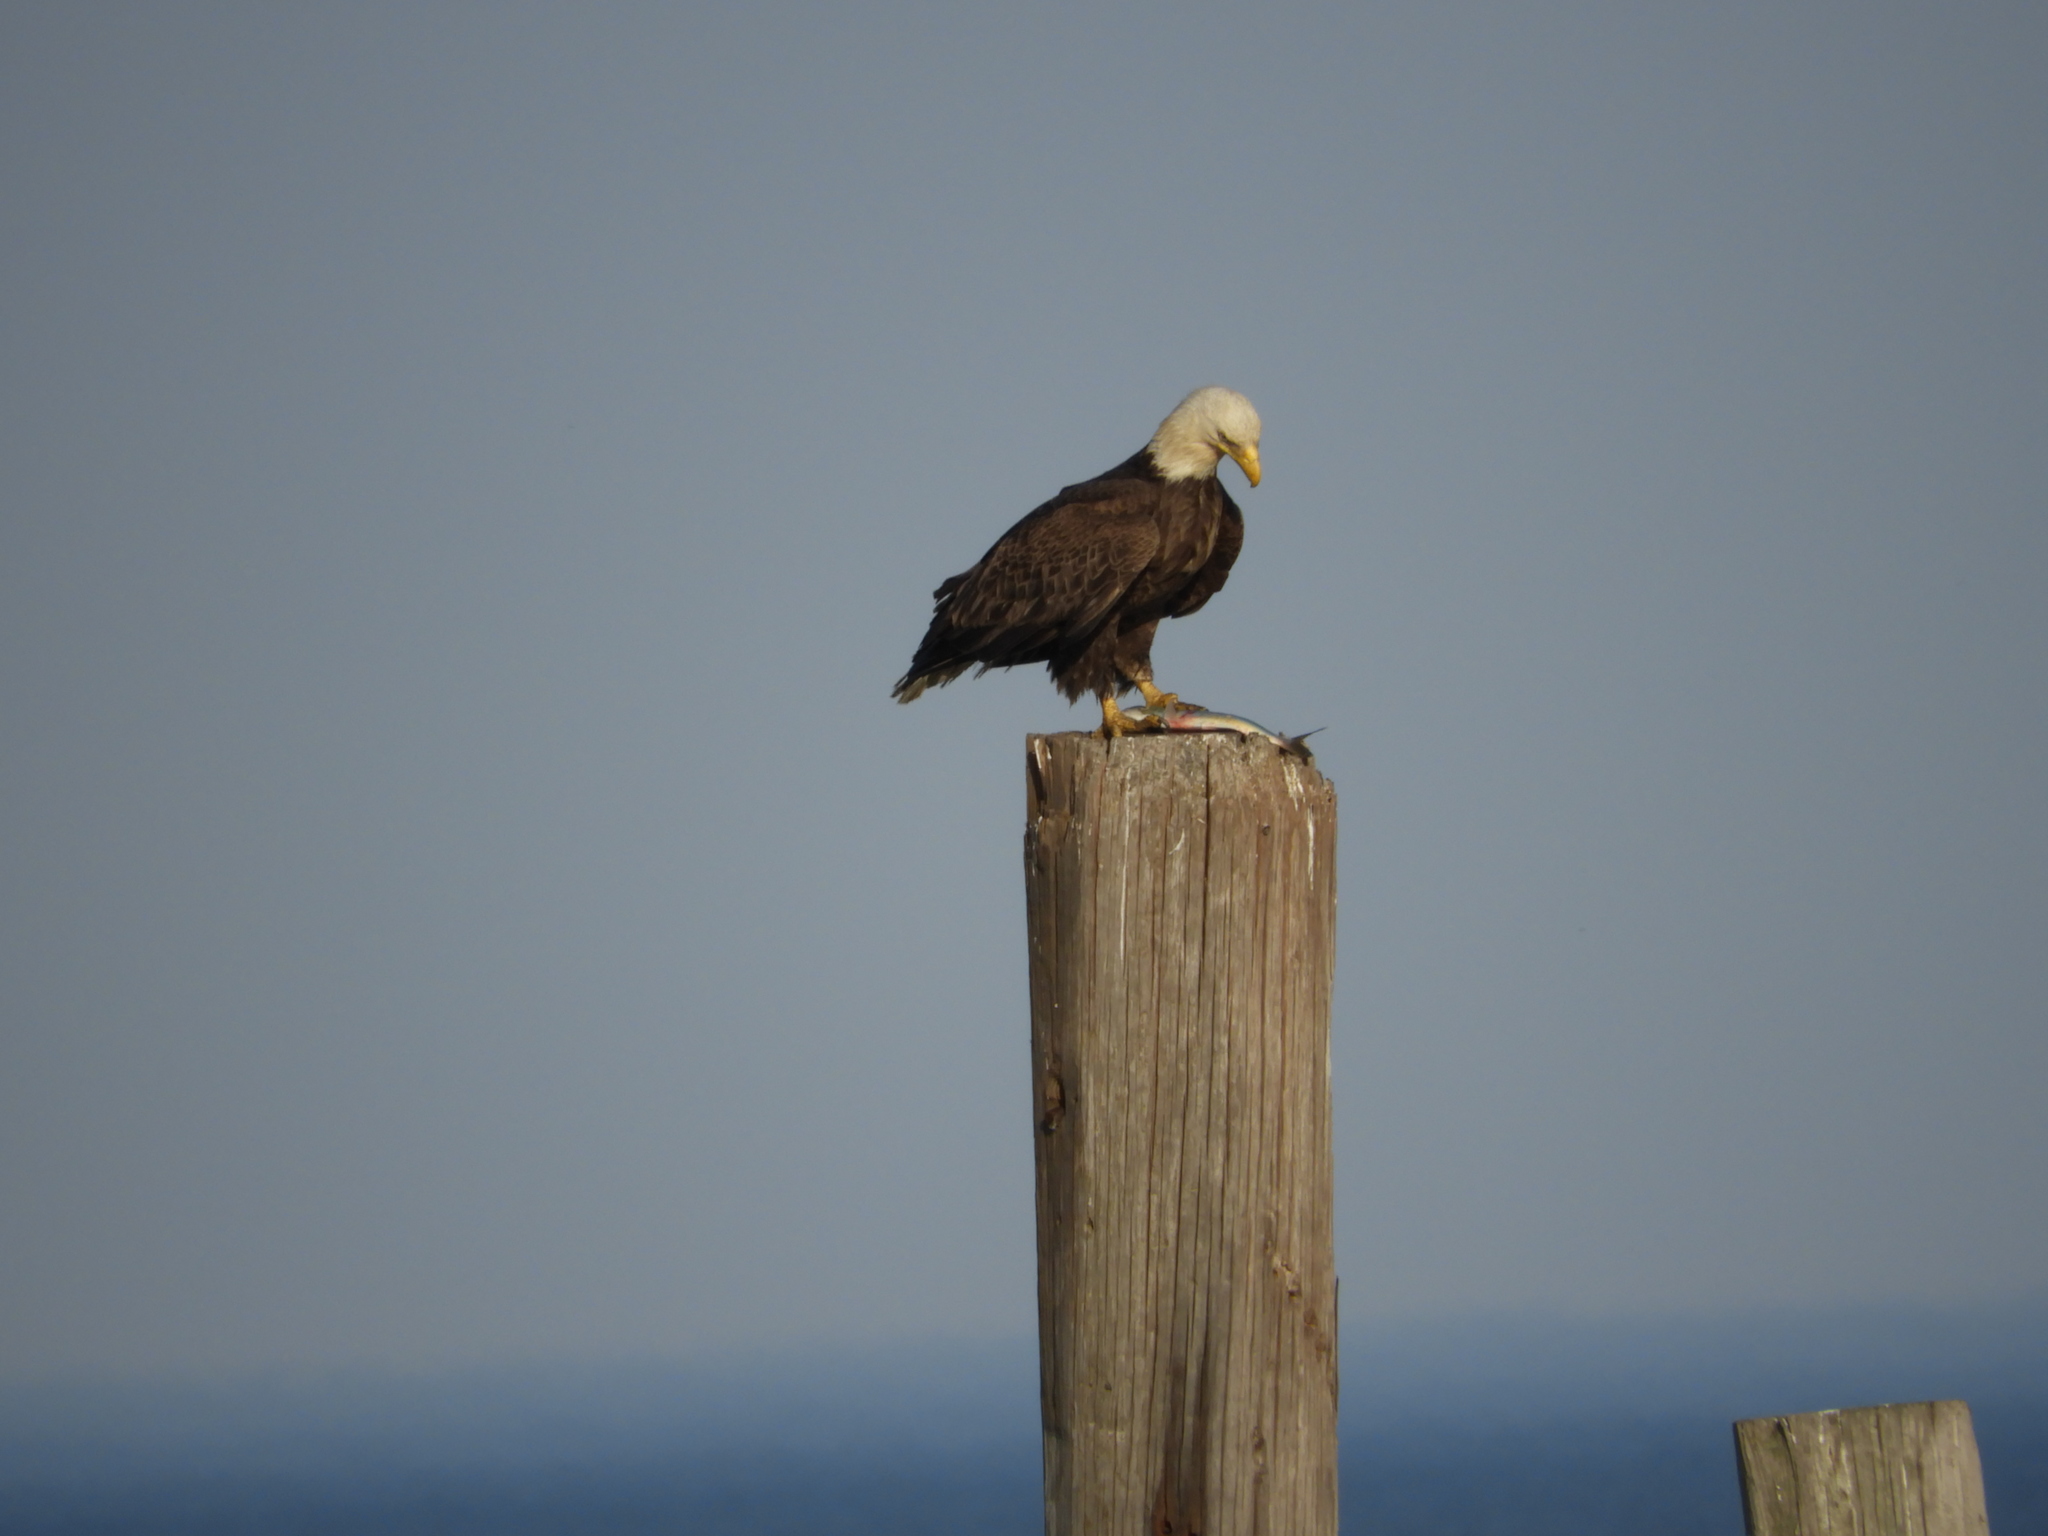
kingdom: Animalia
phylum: Chordata
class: Aves
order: Accipitriformes
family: Accipitridae
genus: Haliaeetus
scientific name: Haliaeetus leucocephalus
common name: Bald eagle
